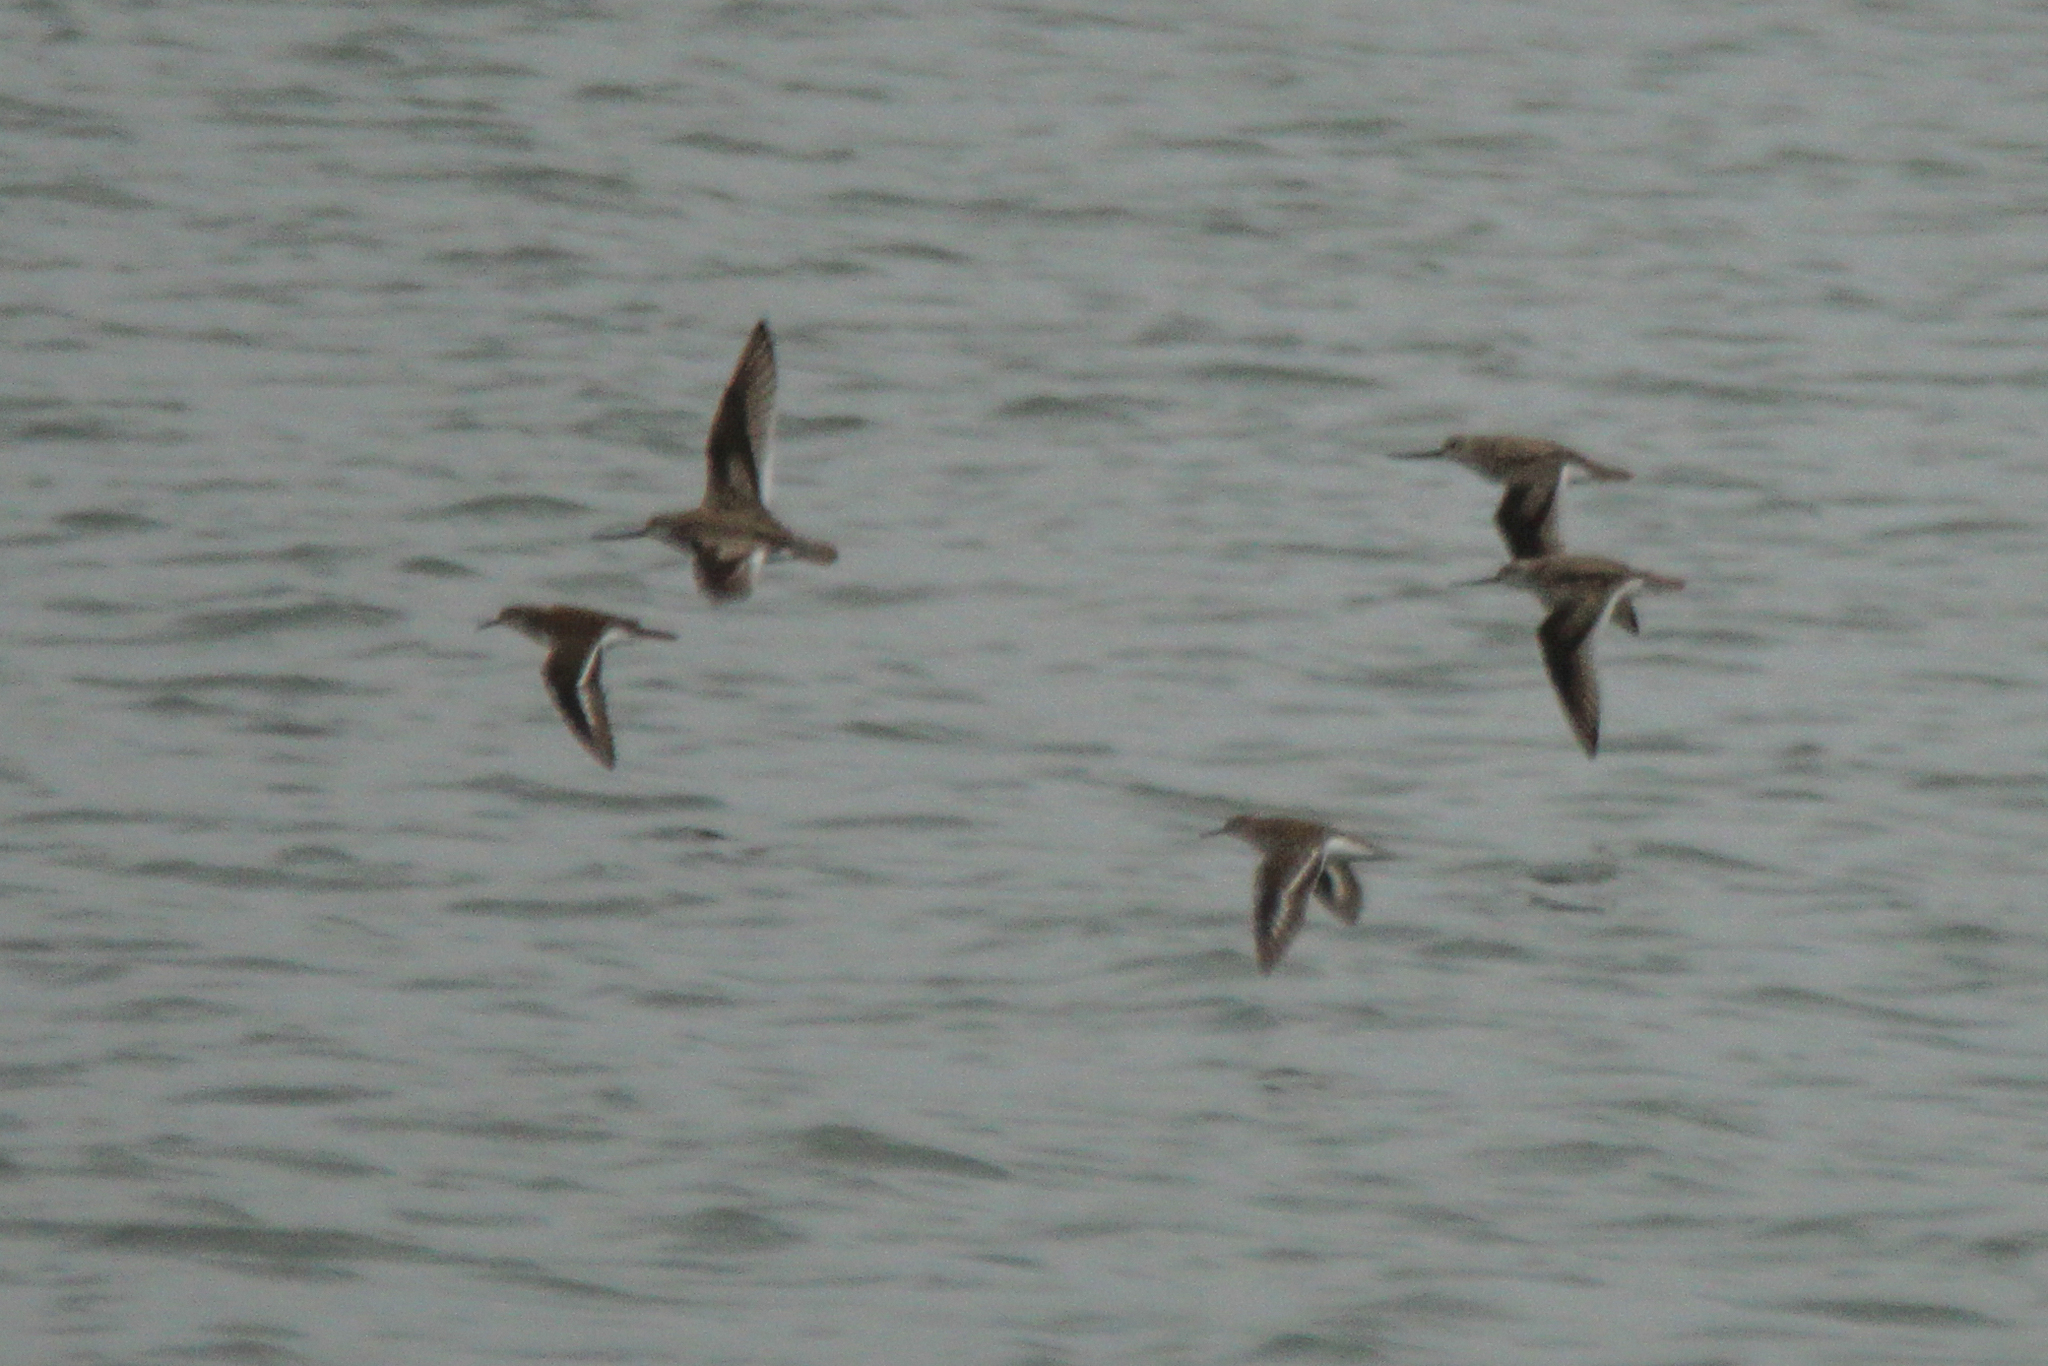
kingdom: Animalia
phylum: Chordata
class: Aves
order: Charadriiformes
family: Scolopacidae
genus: Xenus
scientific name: Xenus cinereus
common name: Terek sandpiper
